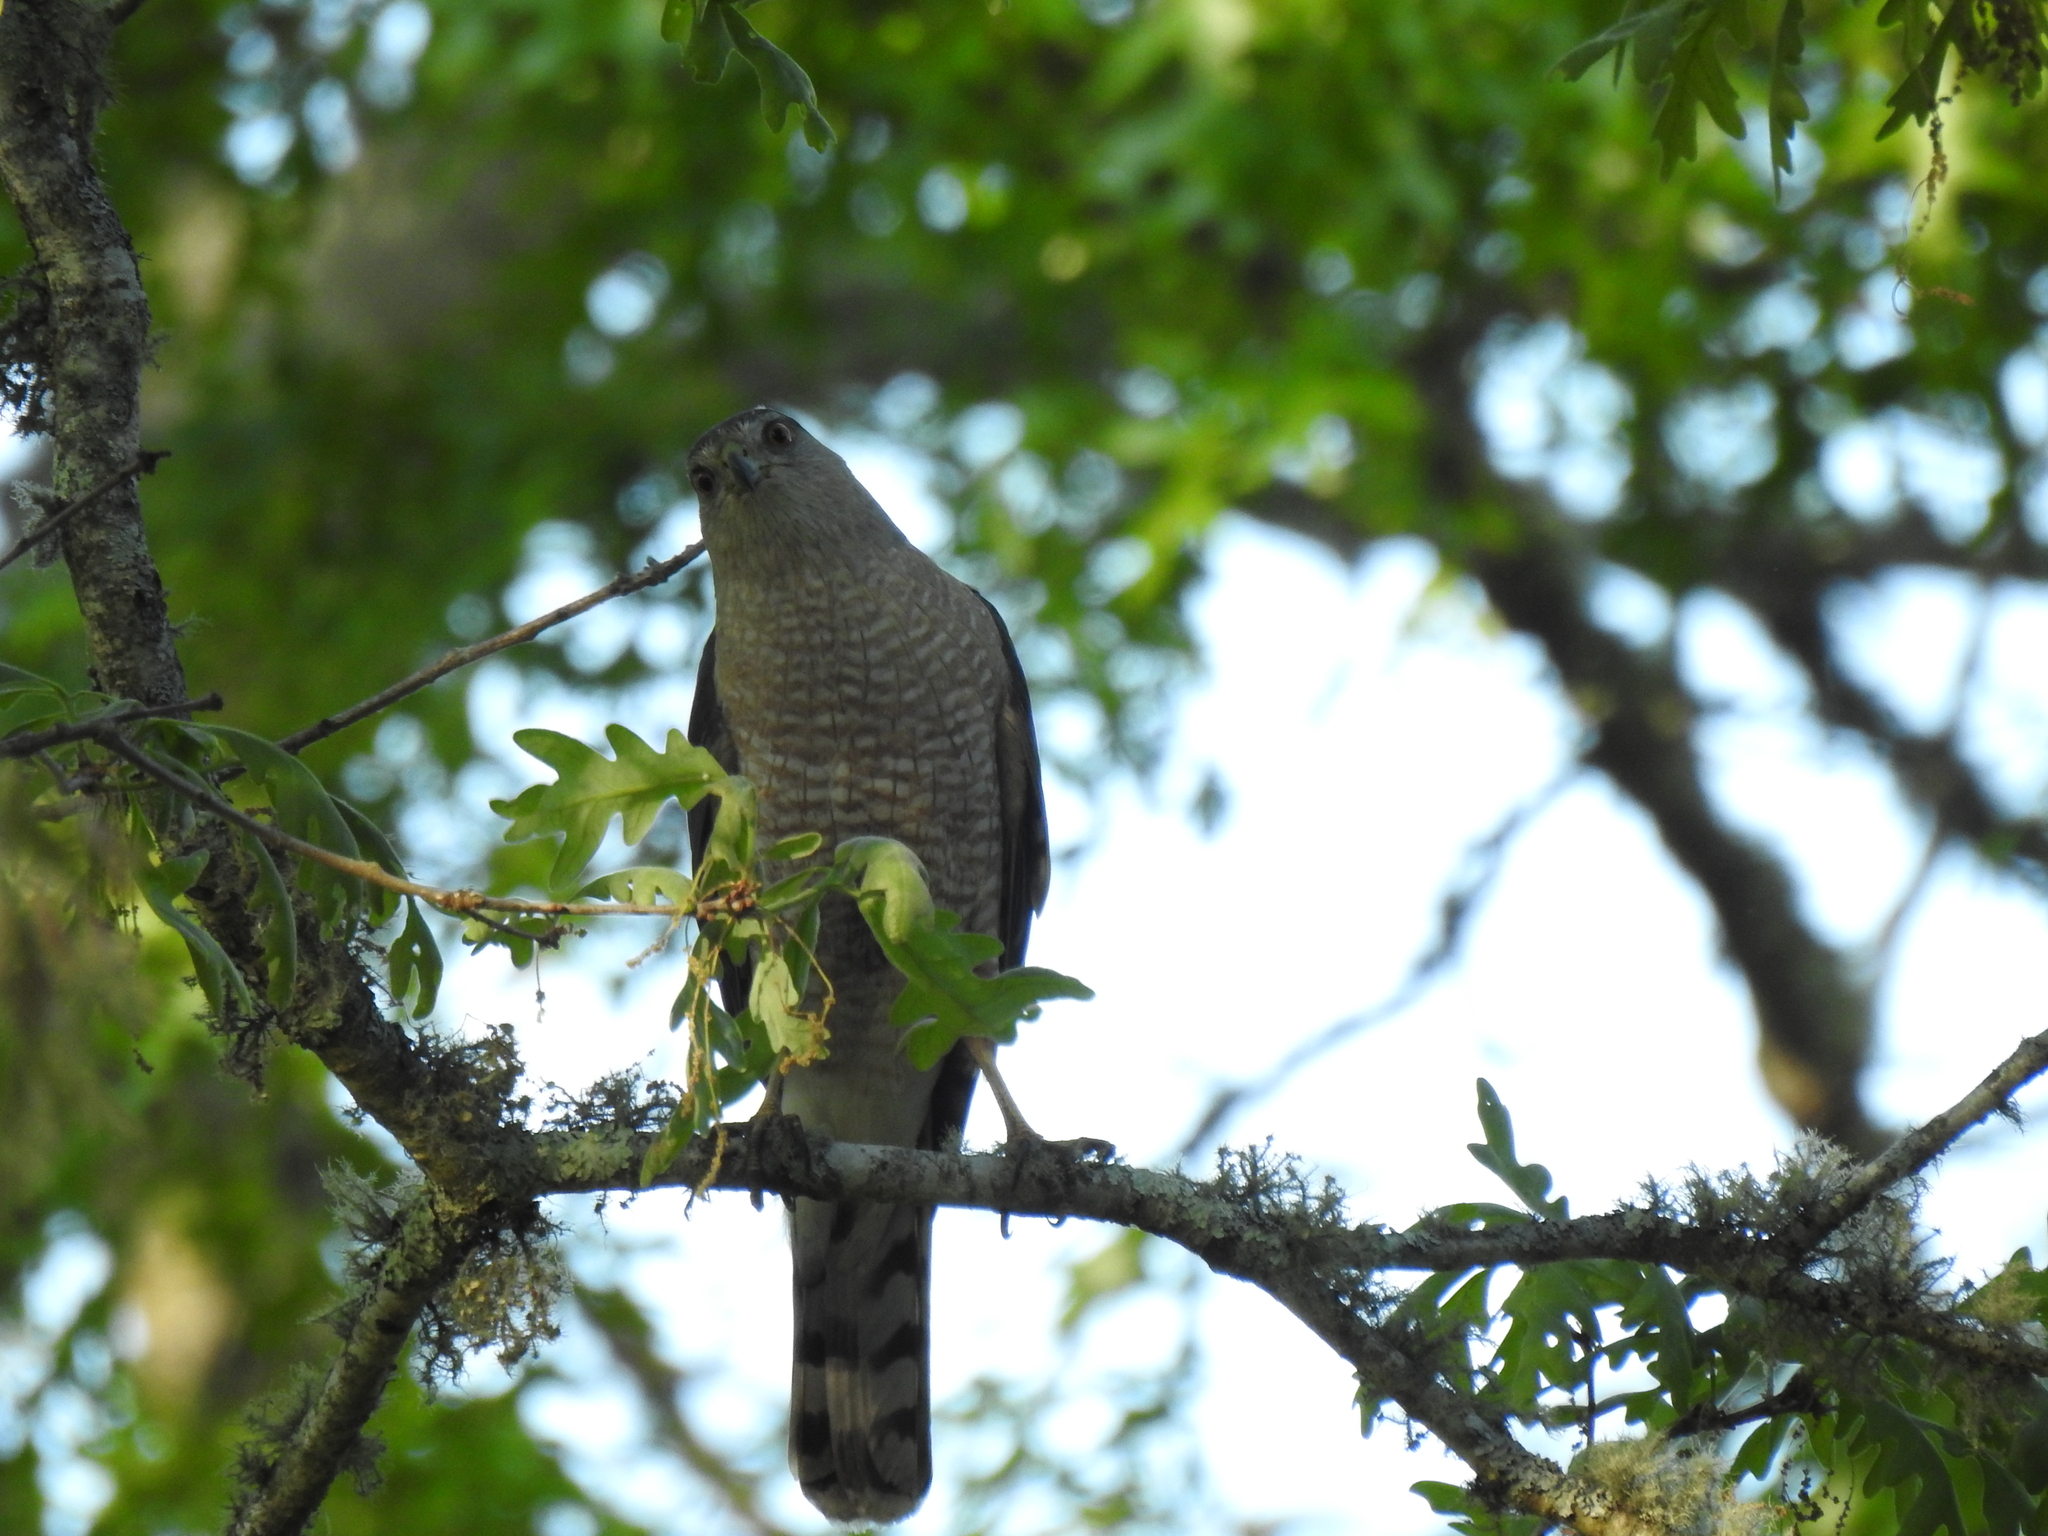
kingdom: Animalia
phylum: Chordata
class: Aves
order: Accipitriformes
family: Accipitridae
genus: Accipiter
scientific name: Accipiter cooperii
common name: Cooper's hawk
